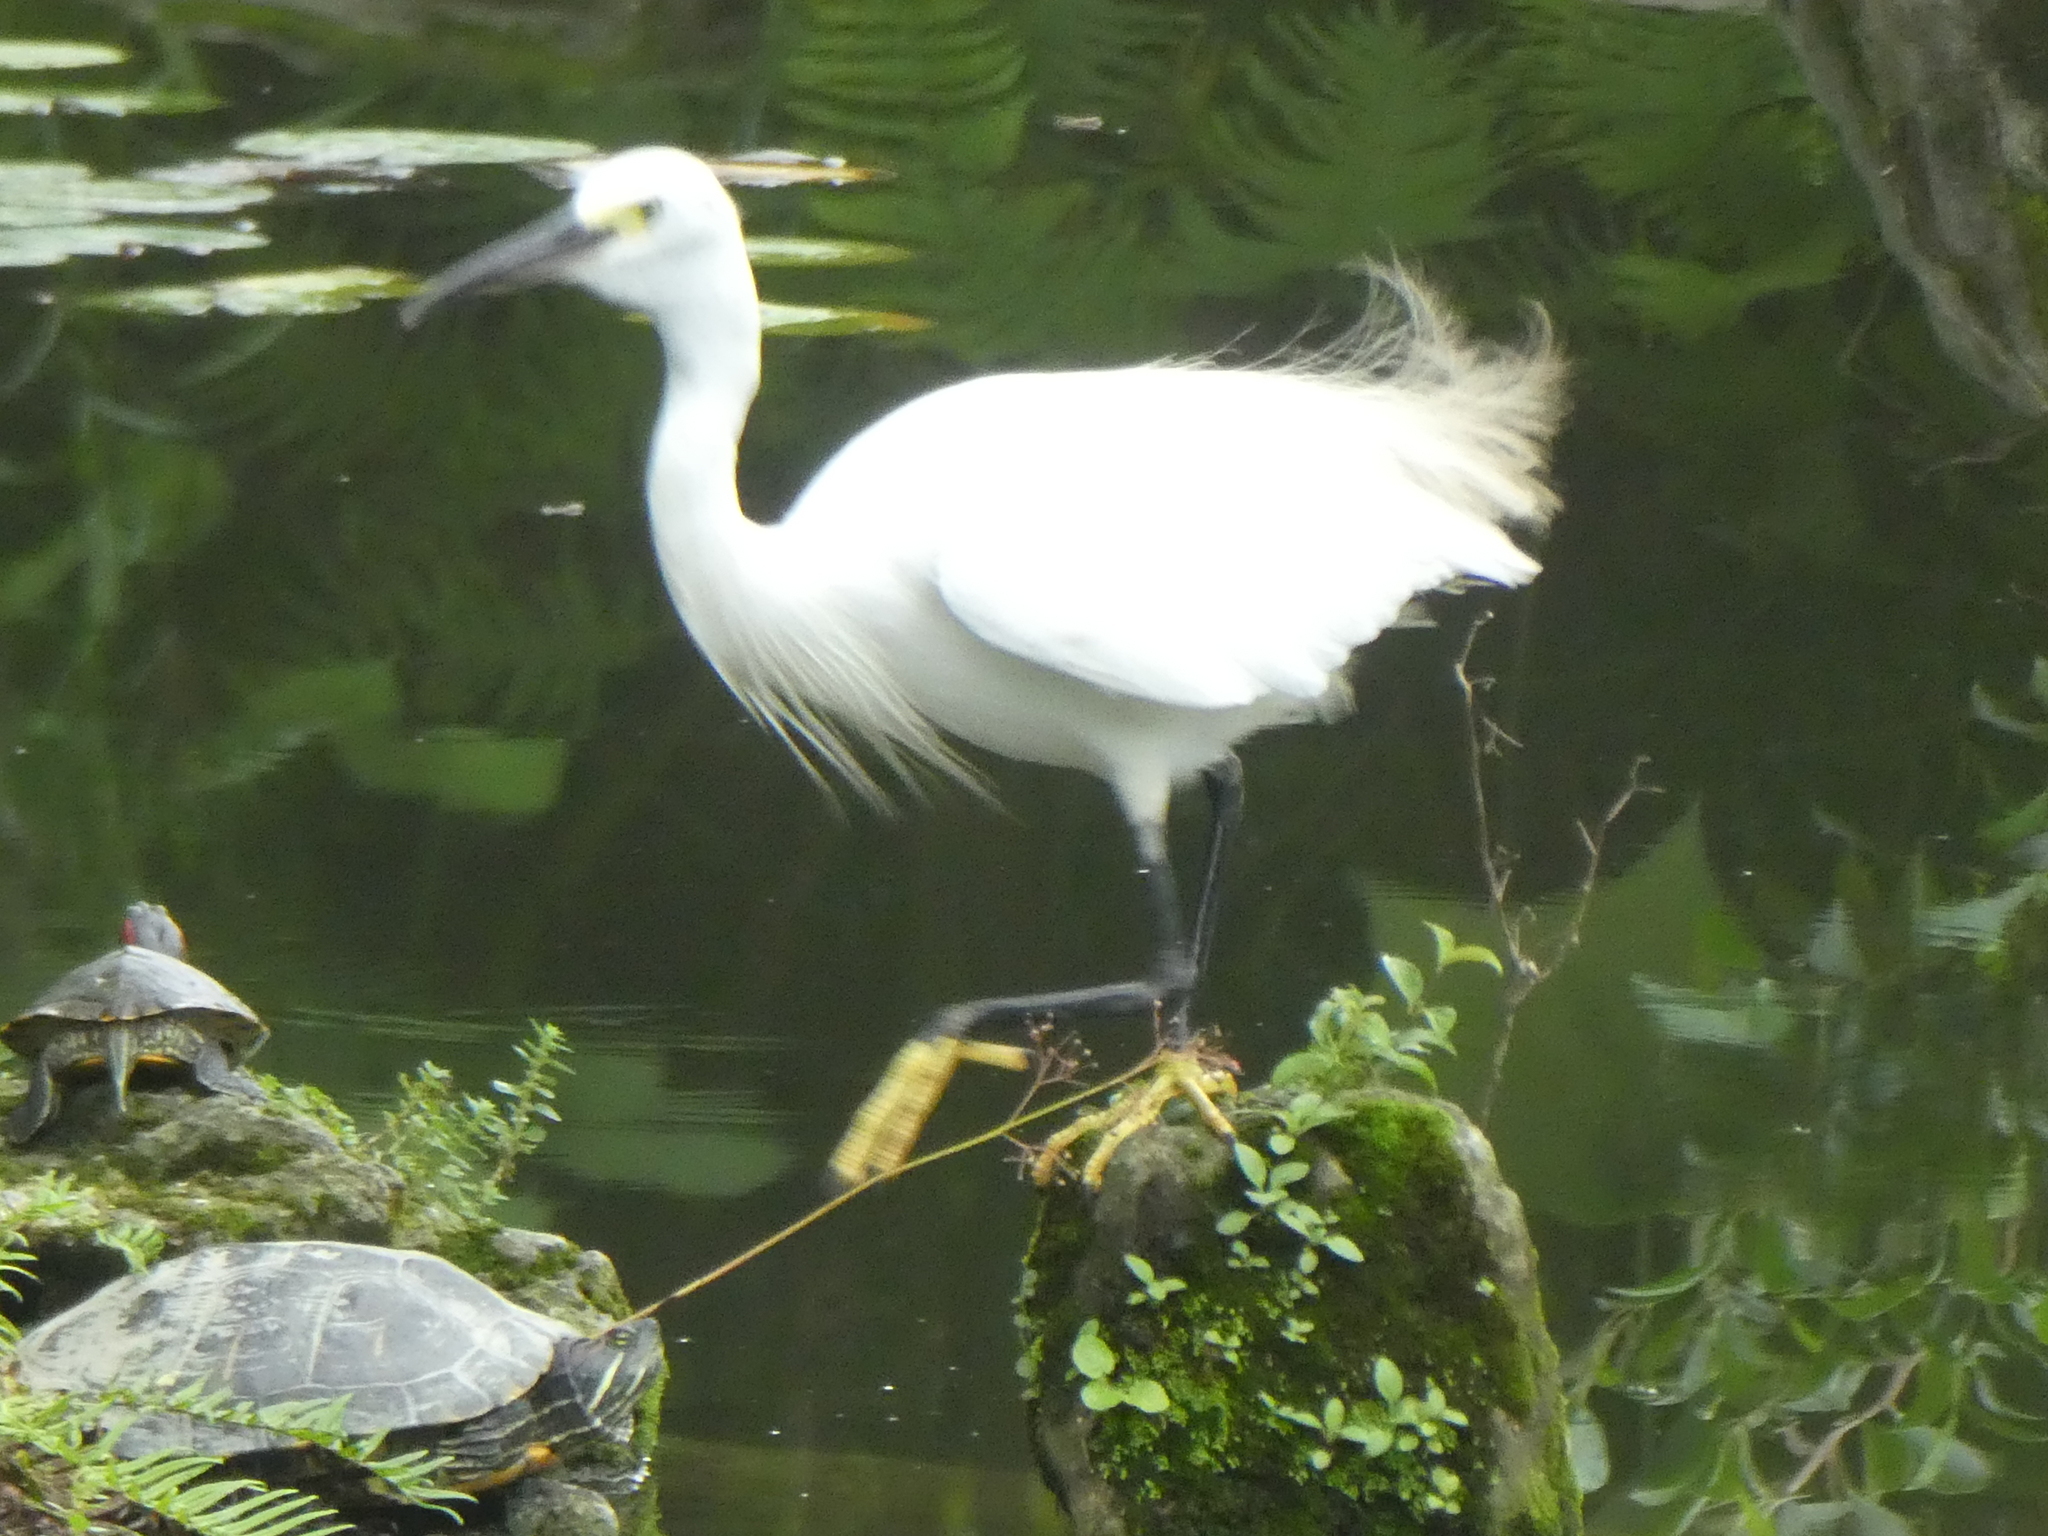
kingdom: Animalia
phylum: Chordata
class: Testudines
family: Emydidae
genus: Trachemys
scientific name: Trachemys scripta
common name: Slider
